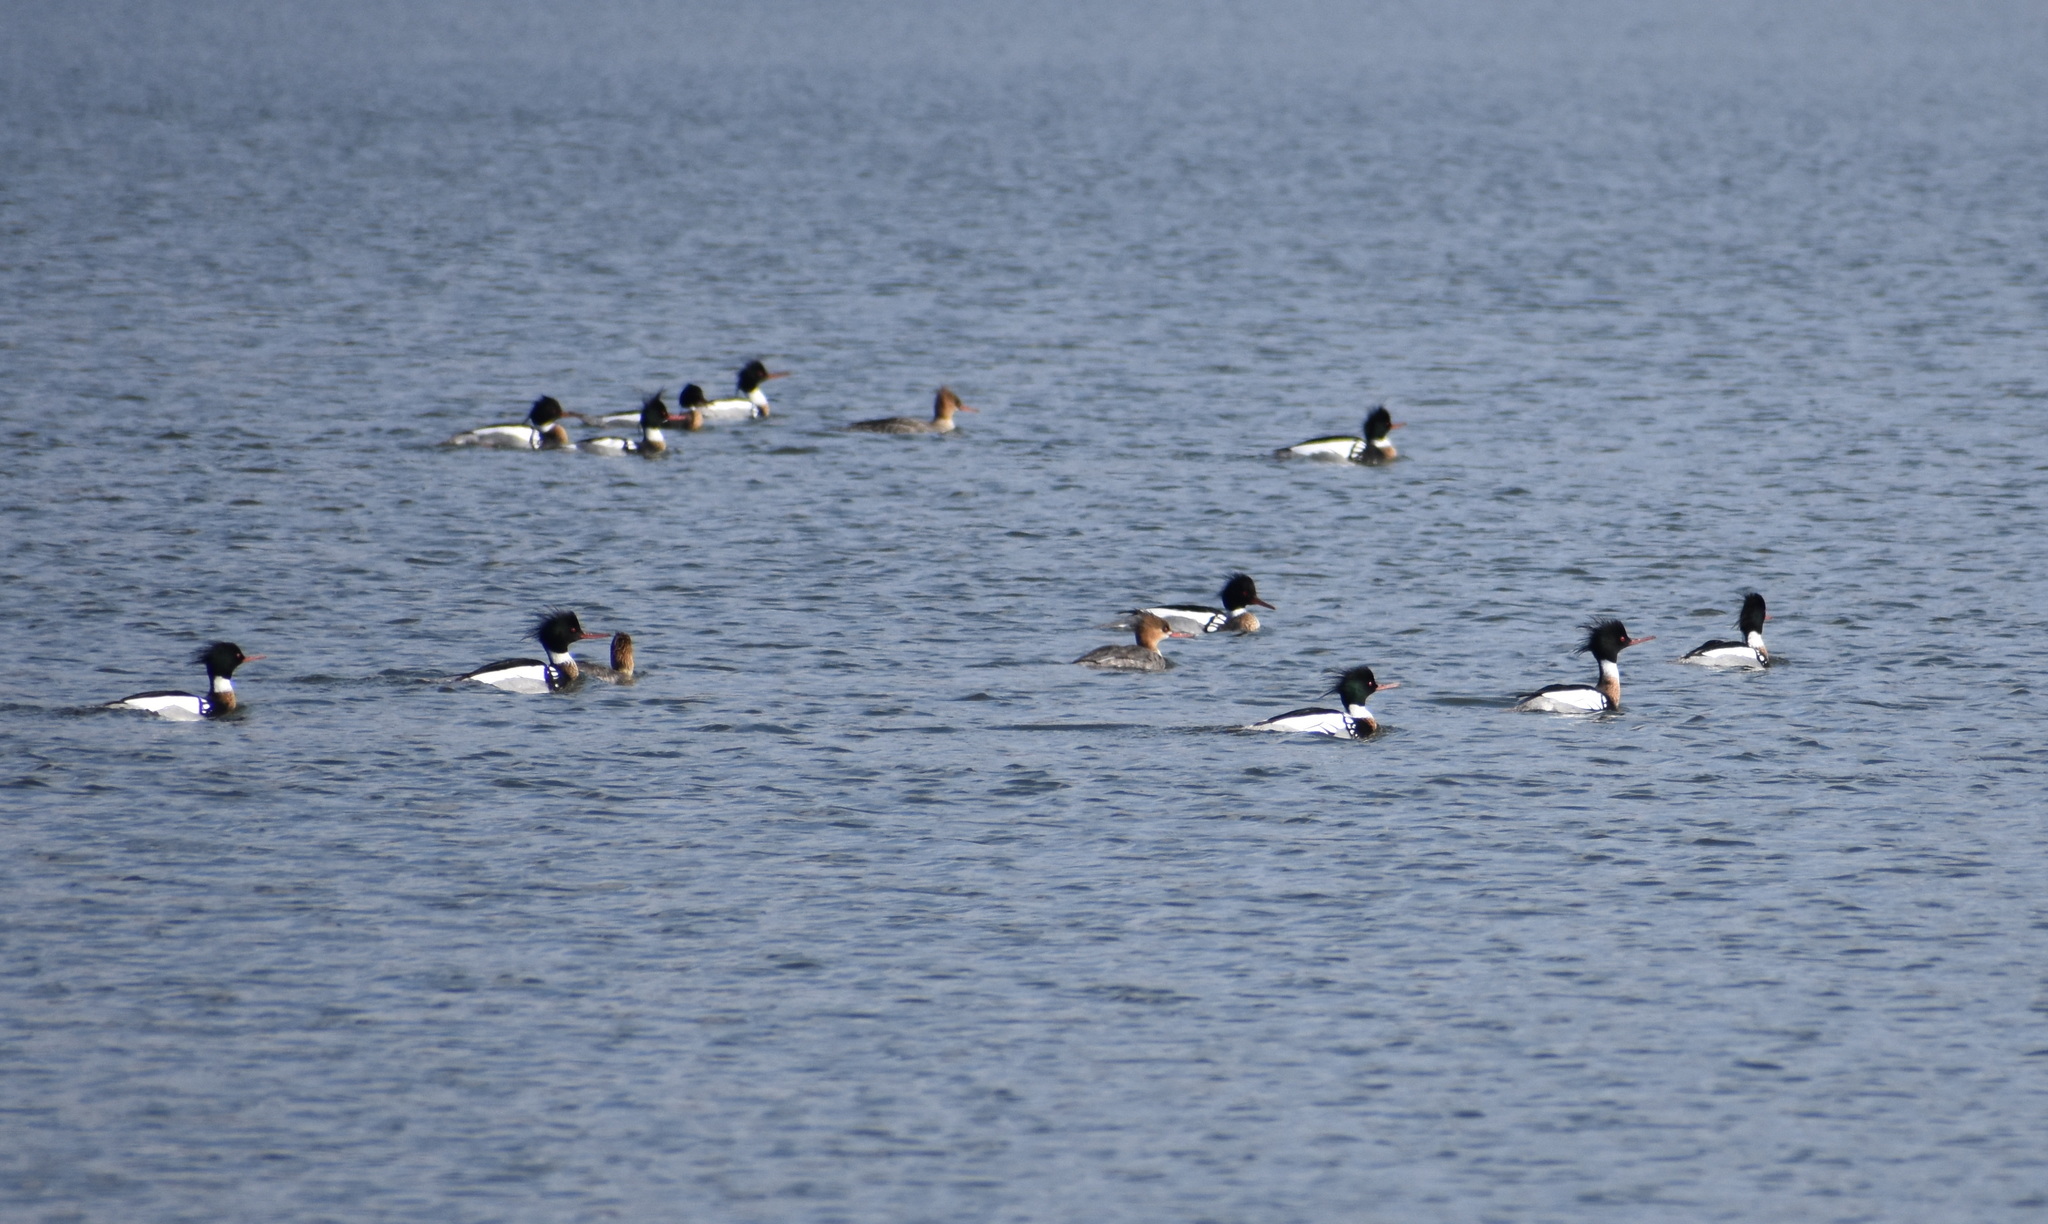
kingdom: Animalia
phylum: Chordata
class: Aves
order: Anseriformes
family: Anatidae
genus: Mergus
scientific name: Mergus serrator
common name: Red-breasted merganser
